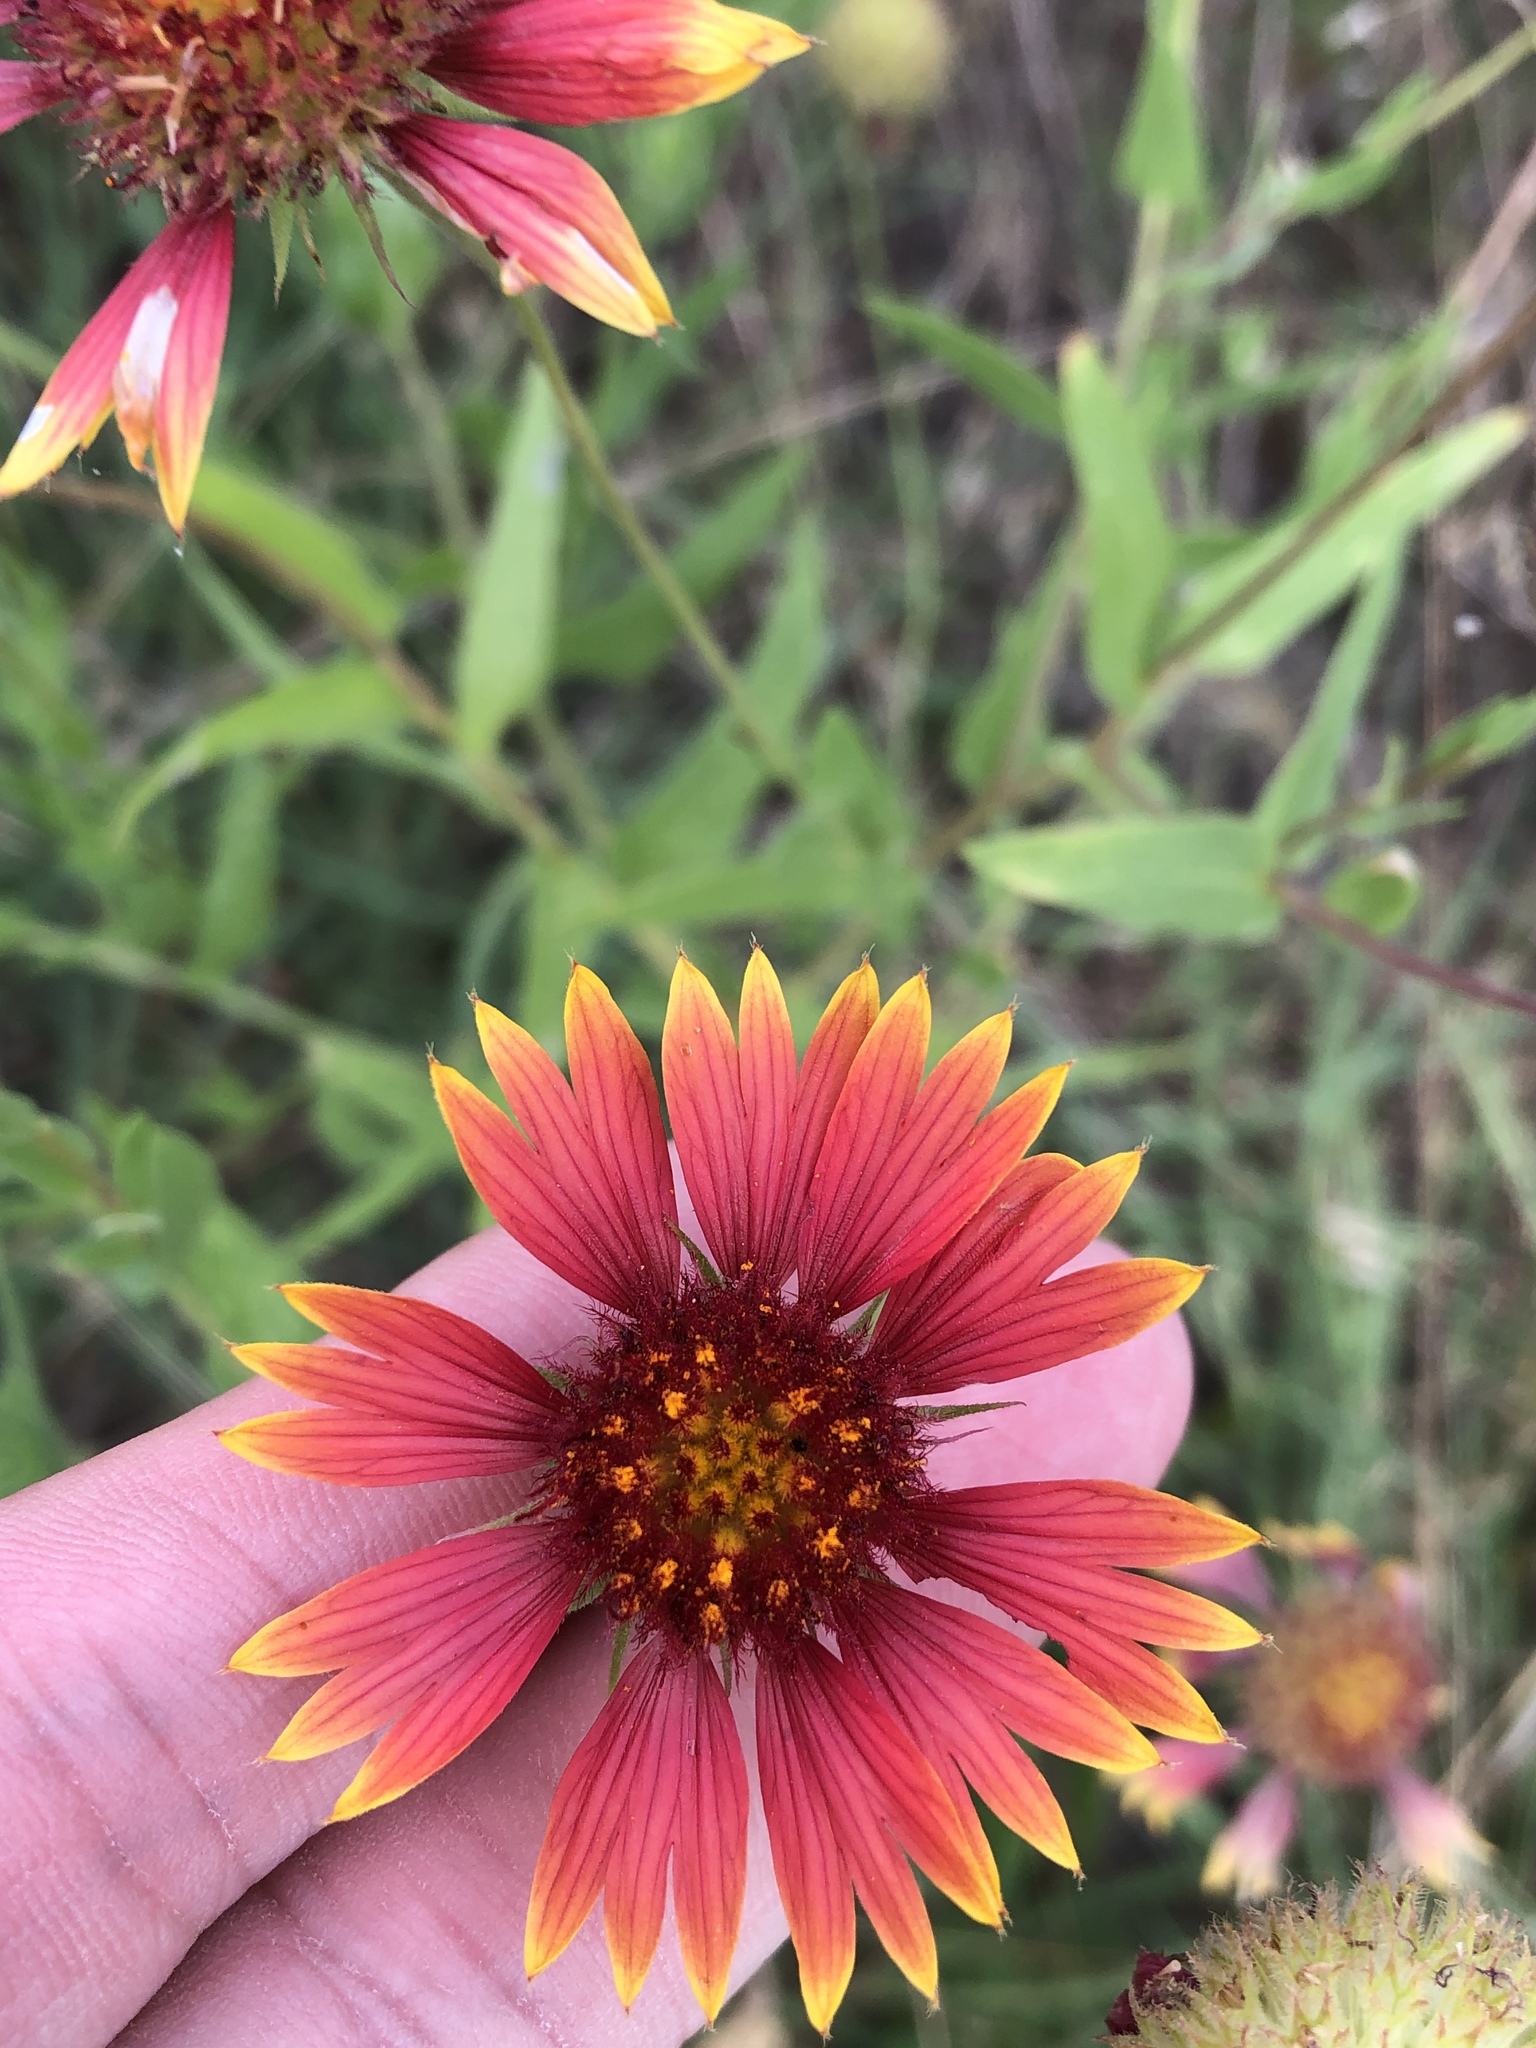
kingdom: Plantae
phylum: Tracheophyta
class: Magnoliopsida
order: Asterales
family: Asteraceae
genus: Gaillardia
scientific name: Gaillardia pulchella
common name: Firewheel
